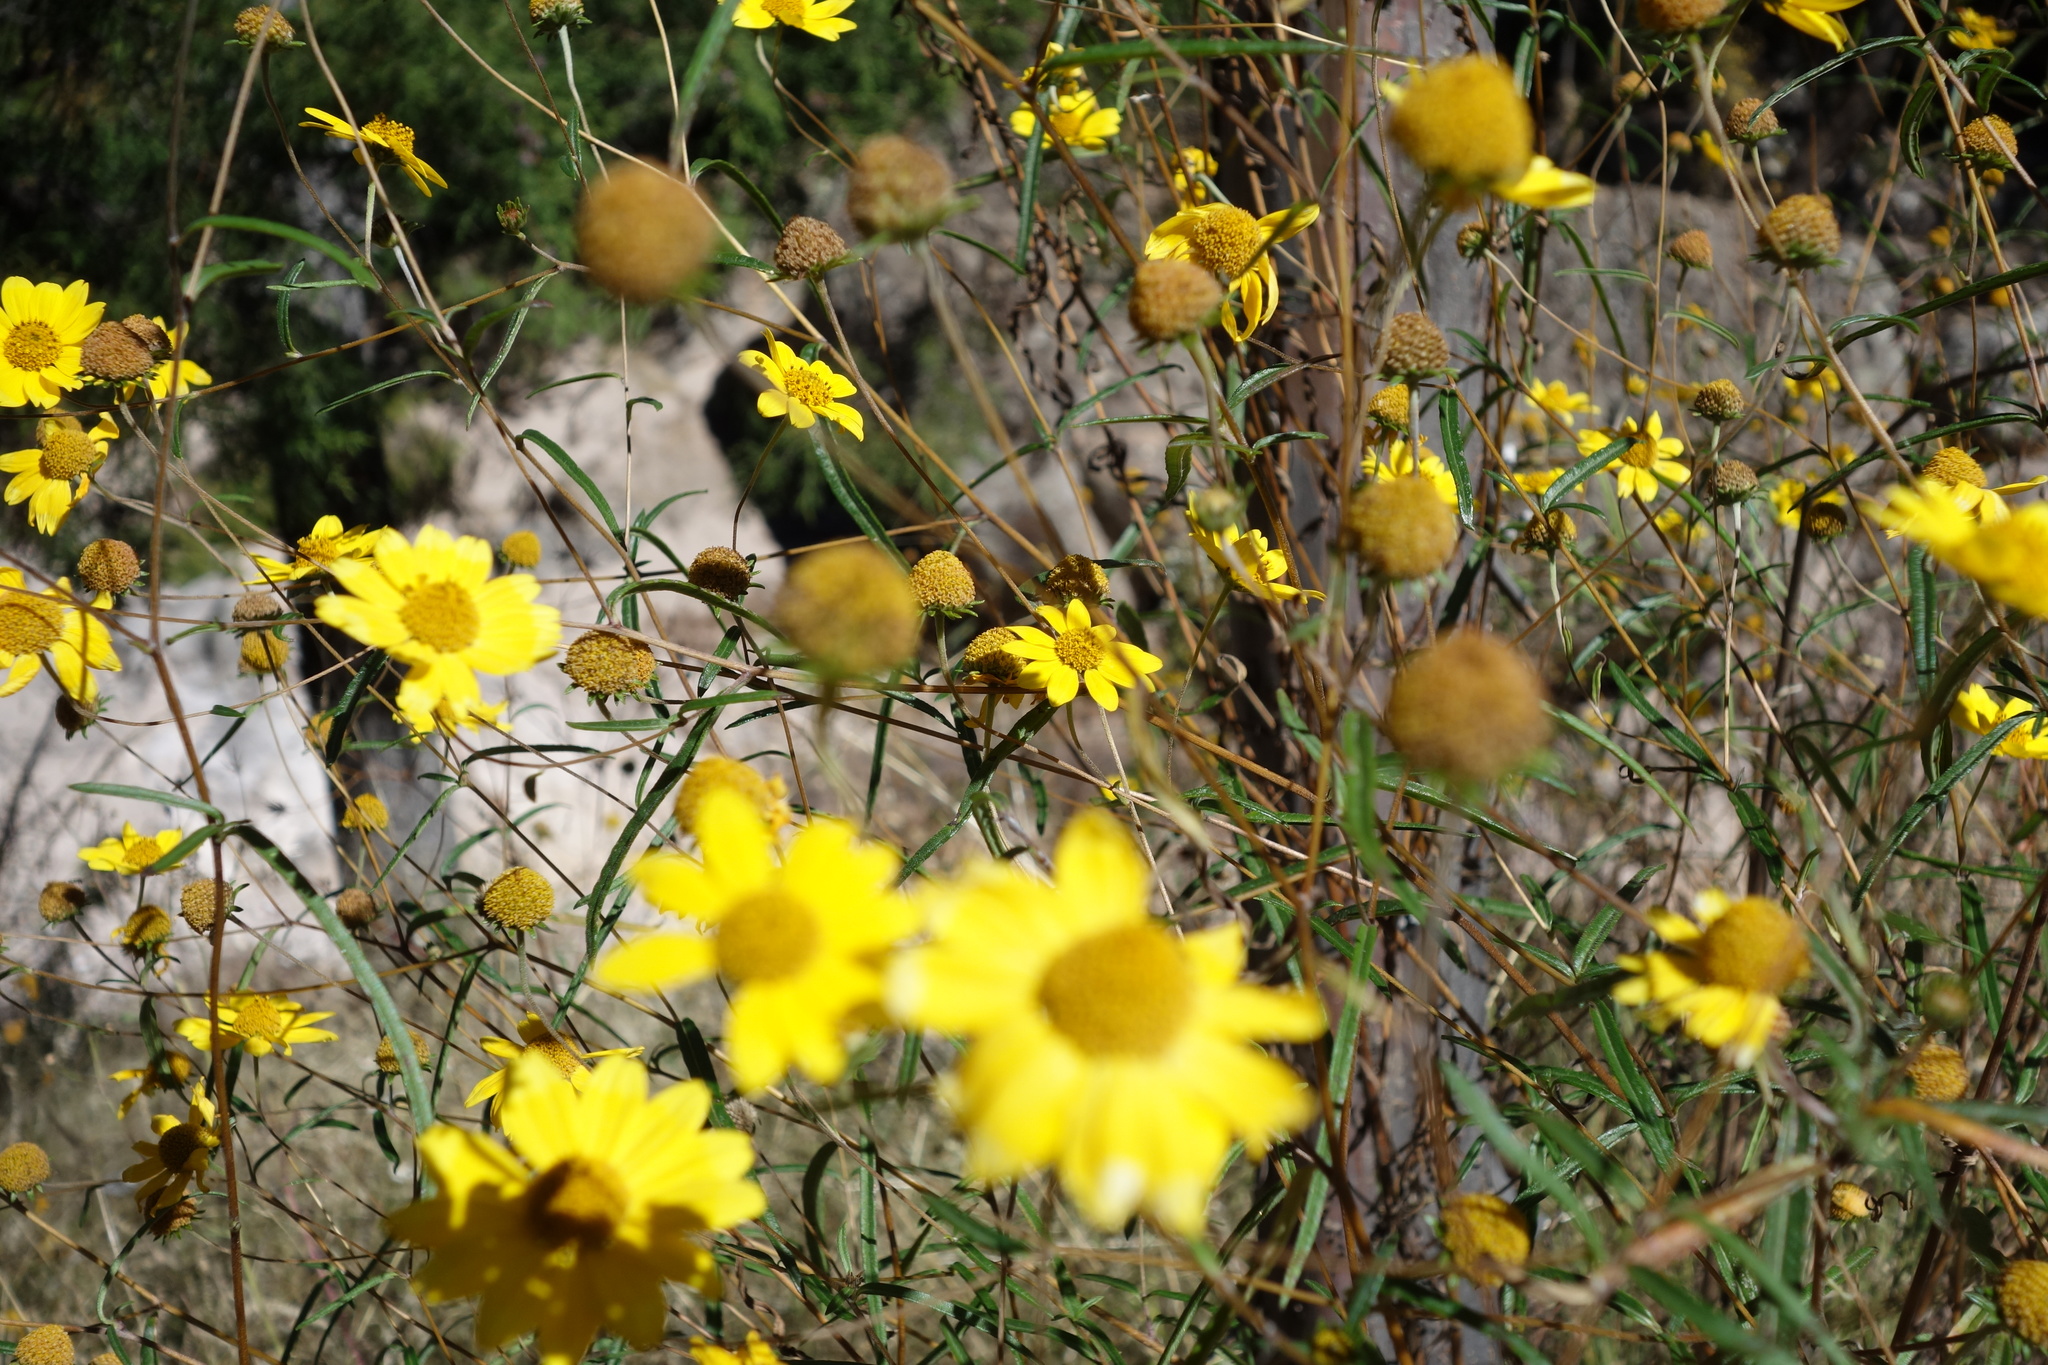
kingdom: Plantae
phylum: Tracheophyta
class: Magnoliopsida
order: Asterales
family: Asteraceae
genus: Heliomeris
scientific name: Heliomeris multiflora
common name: Showy goldeneye
